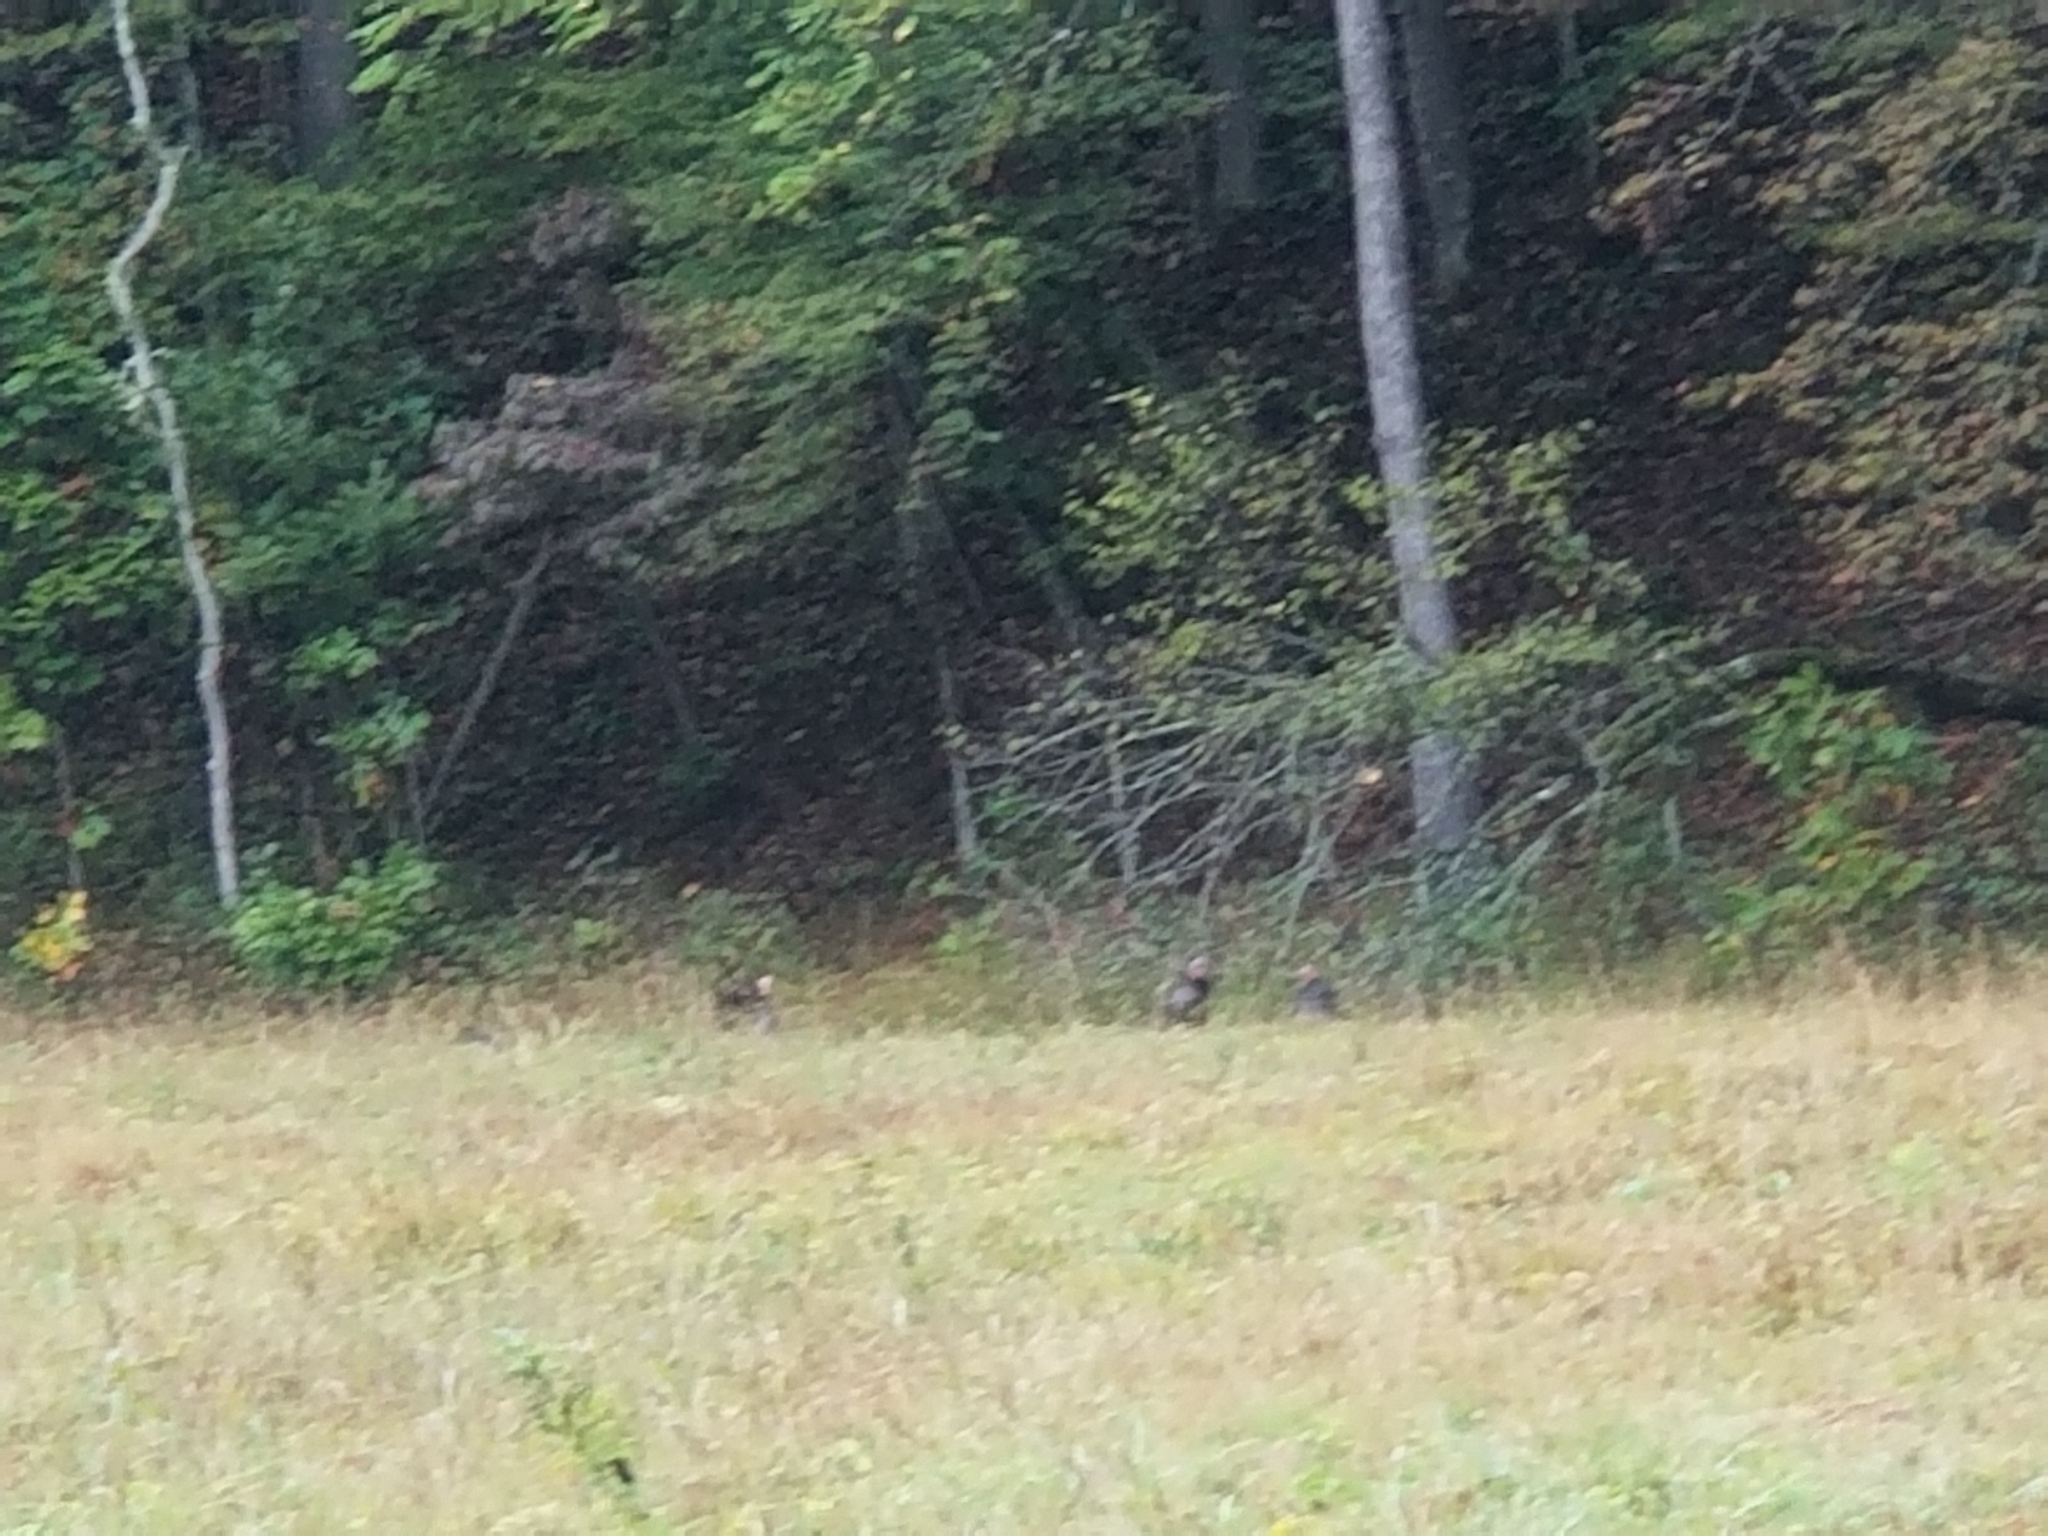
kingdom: Animalia
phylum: Chordata
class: Aves
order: Galliformes
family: Phasianidae
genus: Meleagris
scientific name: Meleagris gallopavo
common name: Wild turkey
